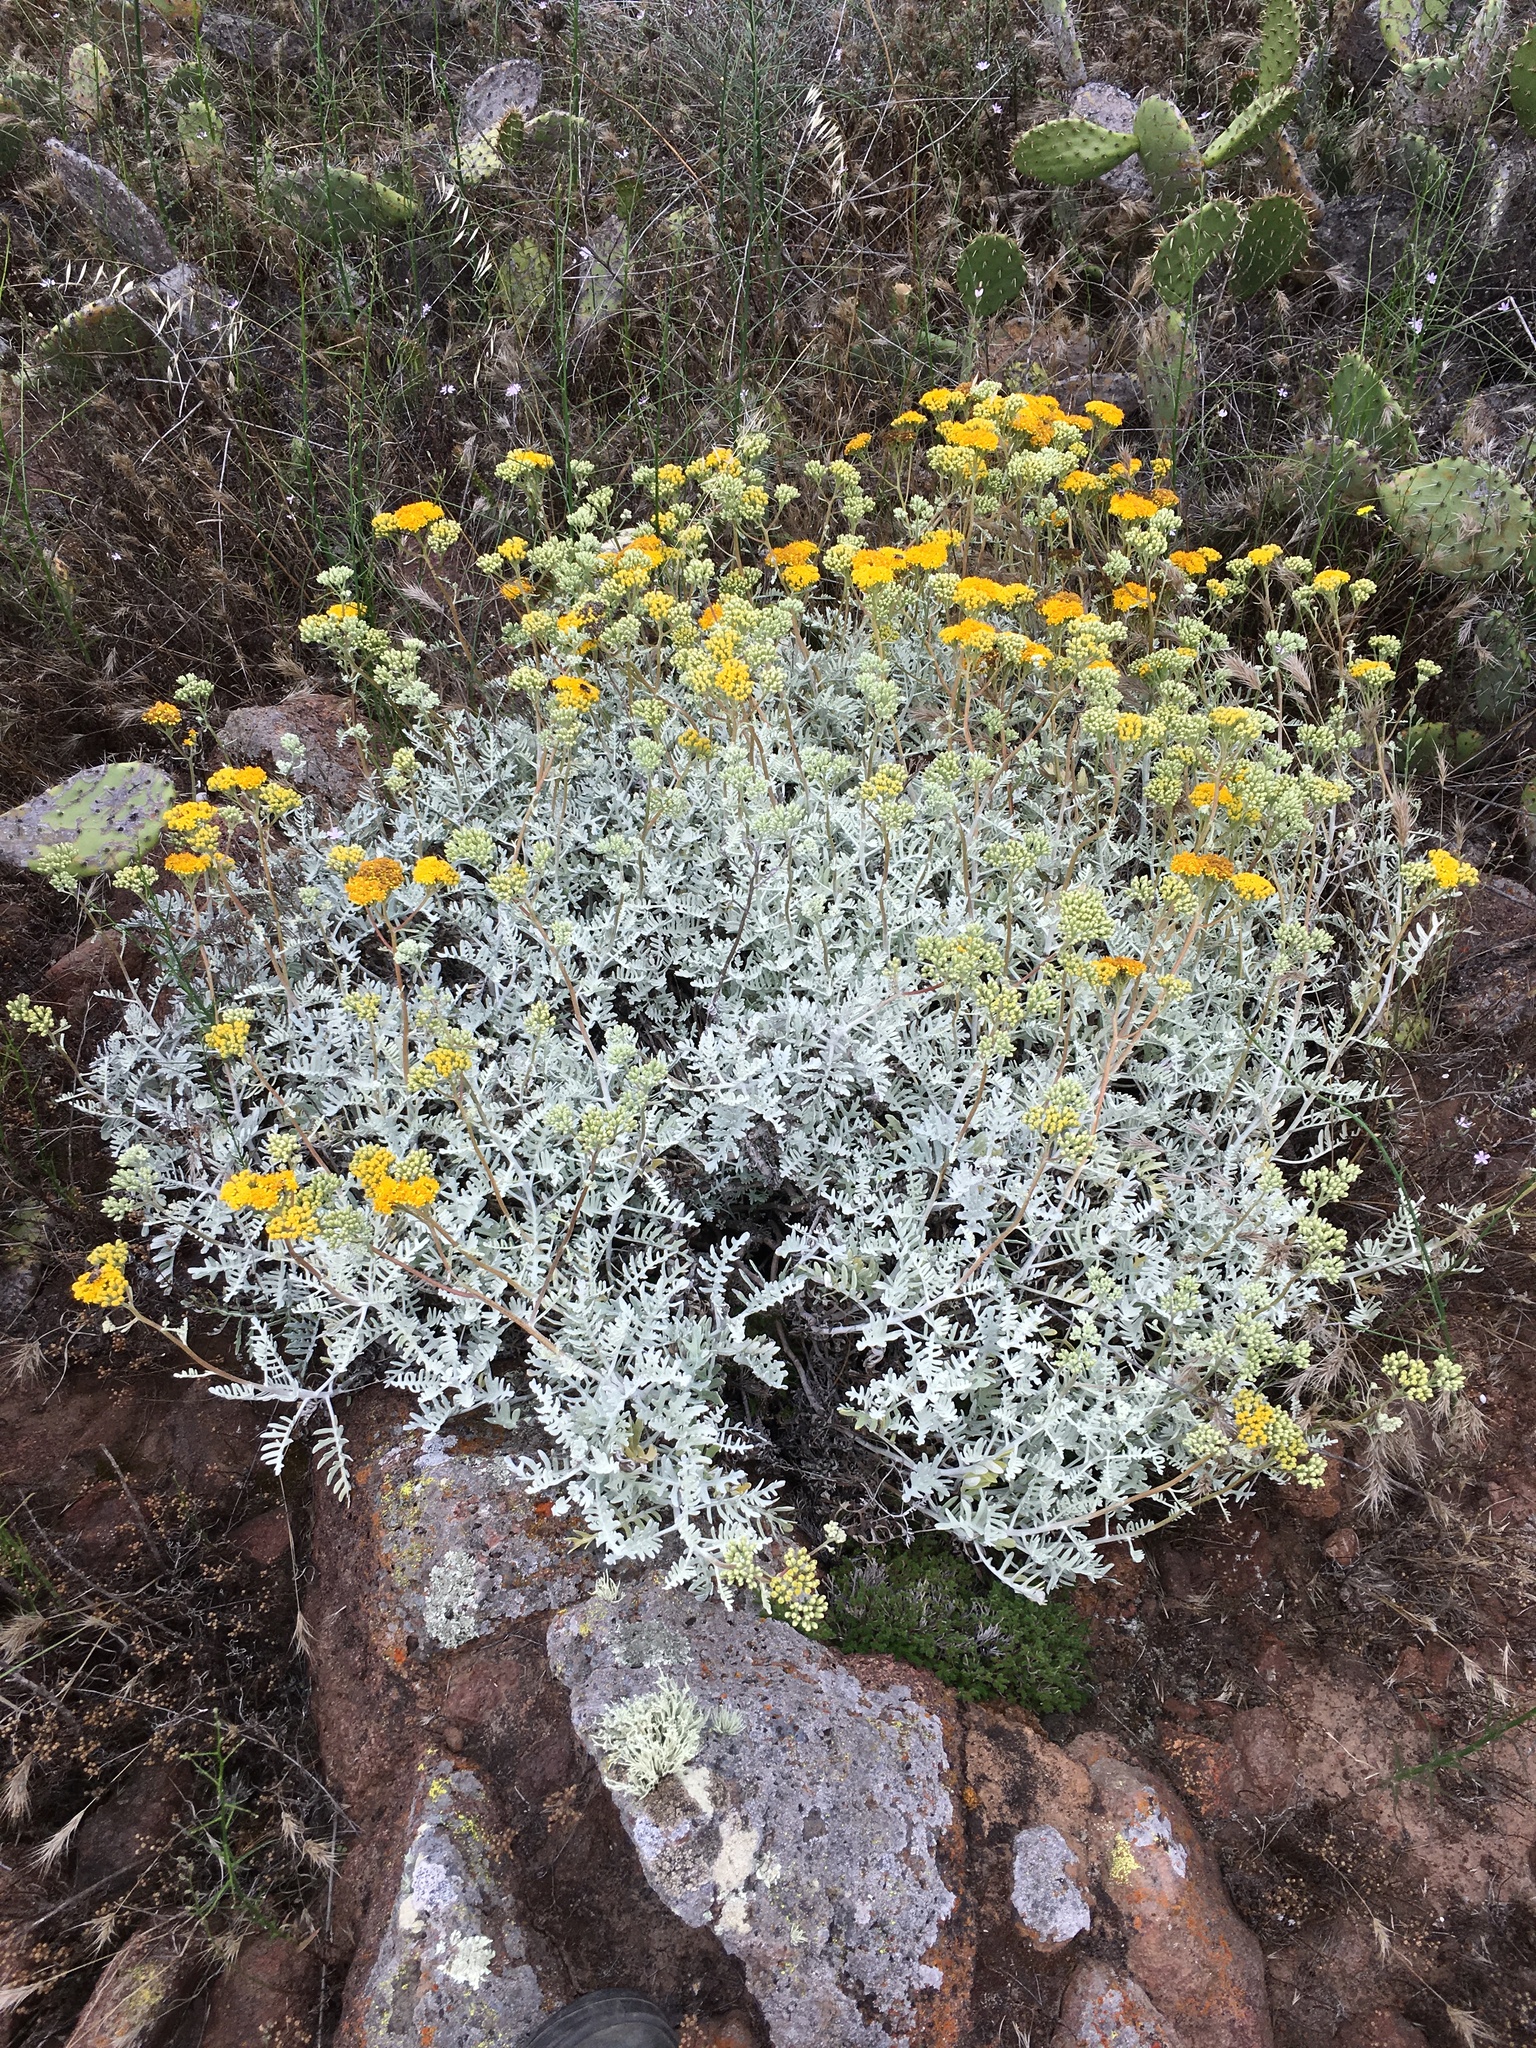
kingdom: Plantae
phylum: Tracheophyta
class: Magnoliopsida
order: Asterales
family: Asteraceae
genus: Constancea
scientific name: Constancea nevinii
